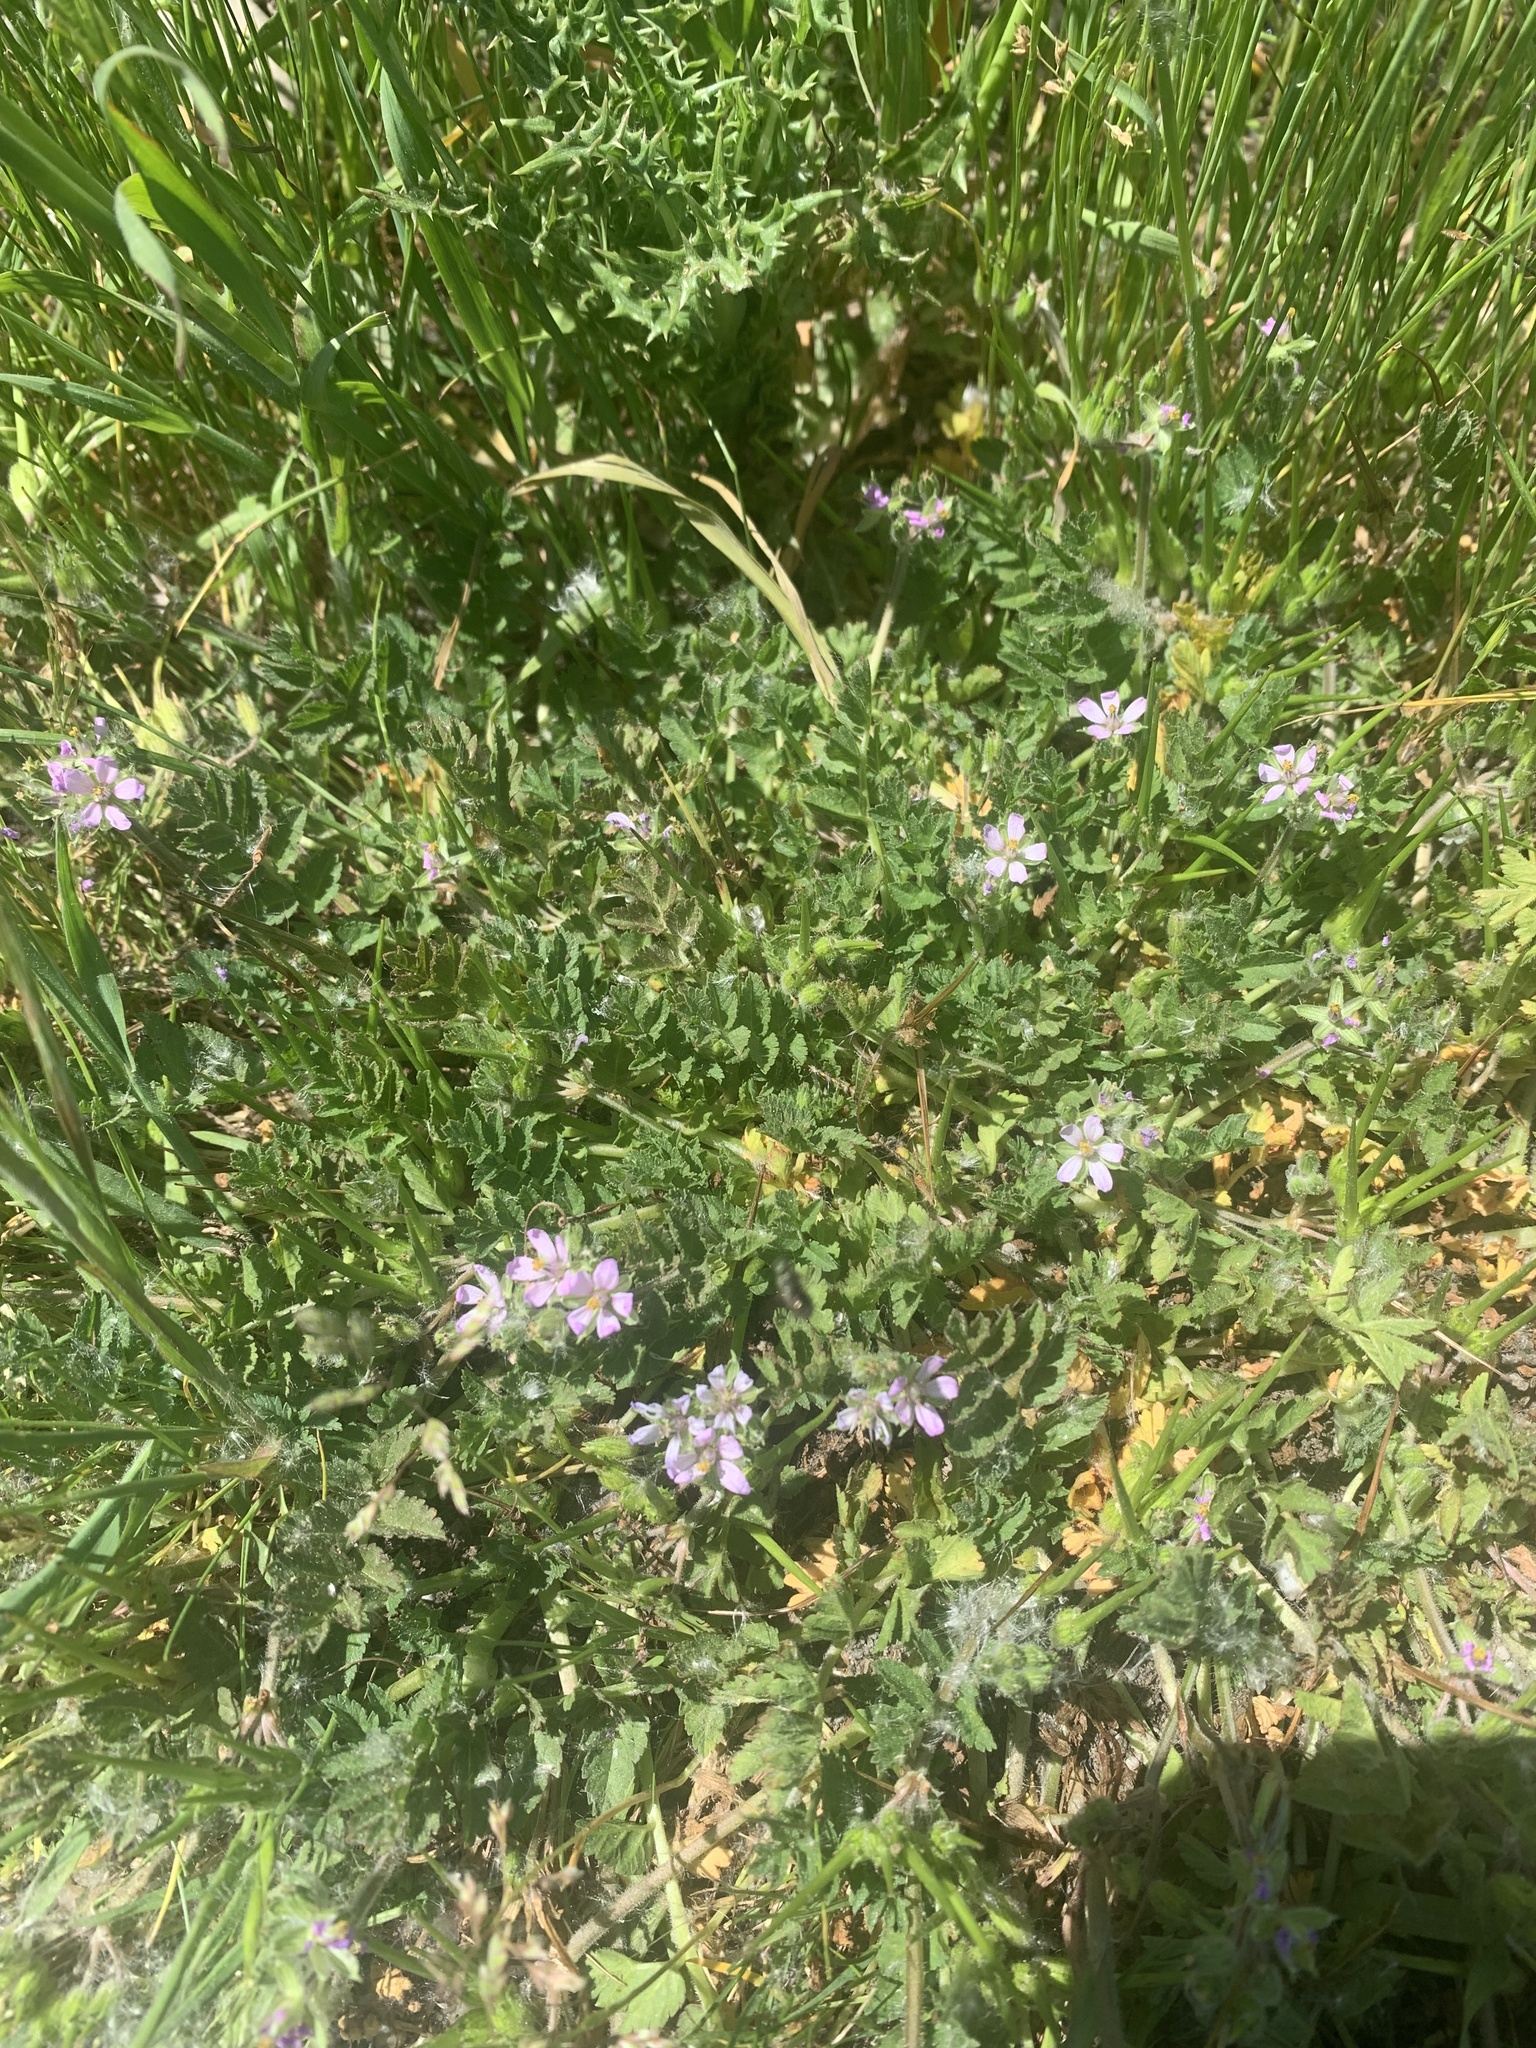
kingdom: Plantae
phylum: Tracheophyta
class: Magnoliopsida
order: Geraniales
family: Geraniaceae
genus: Erodium
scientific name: Erodium moschatum
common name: Musk stork's-bill
